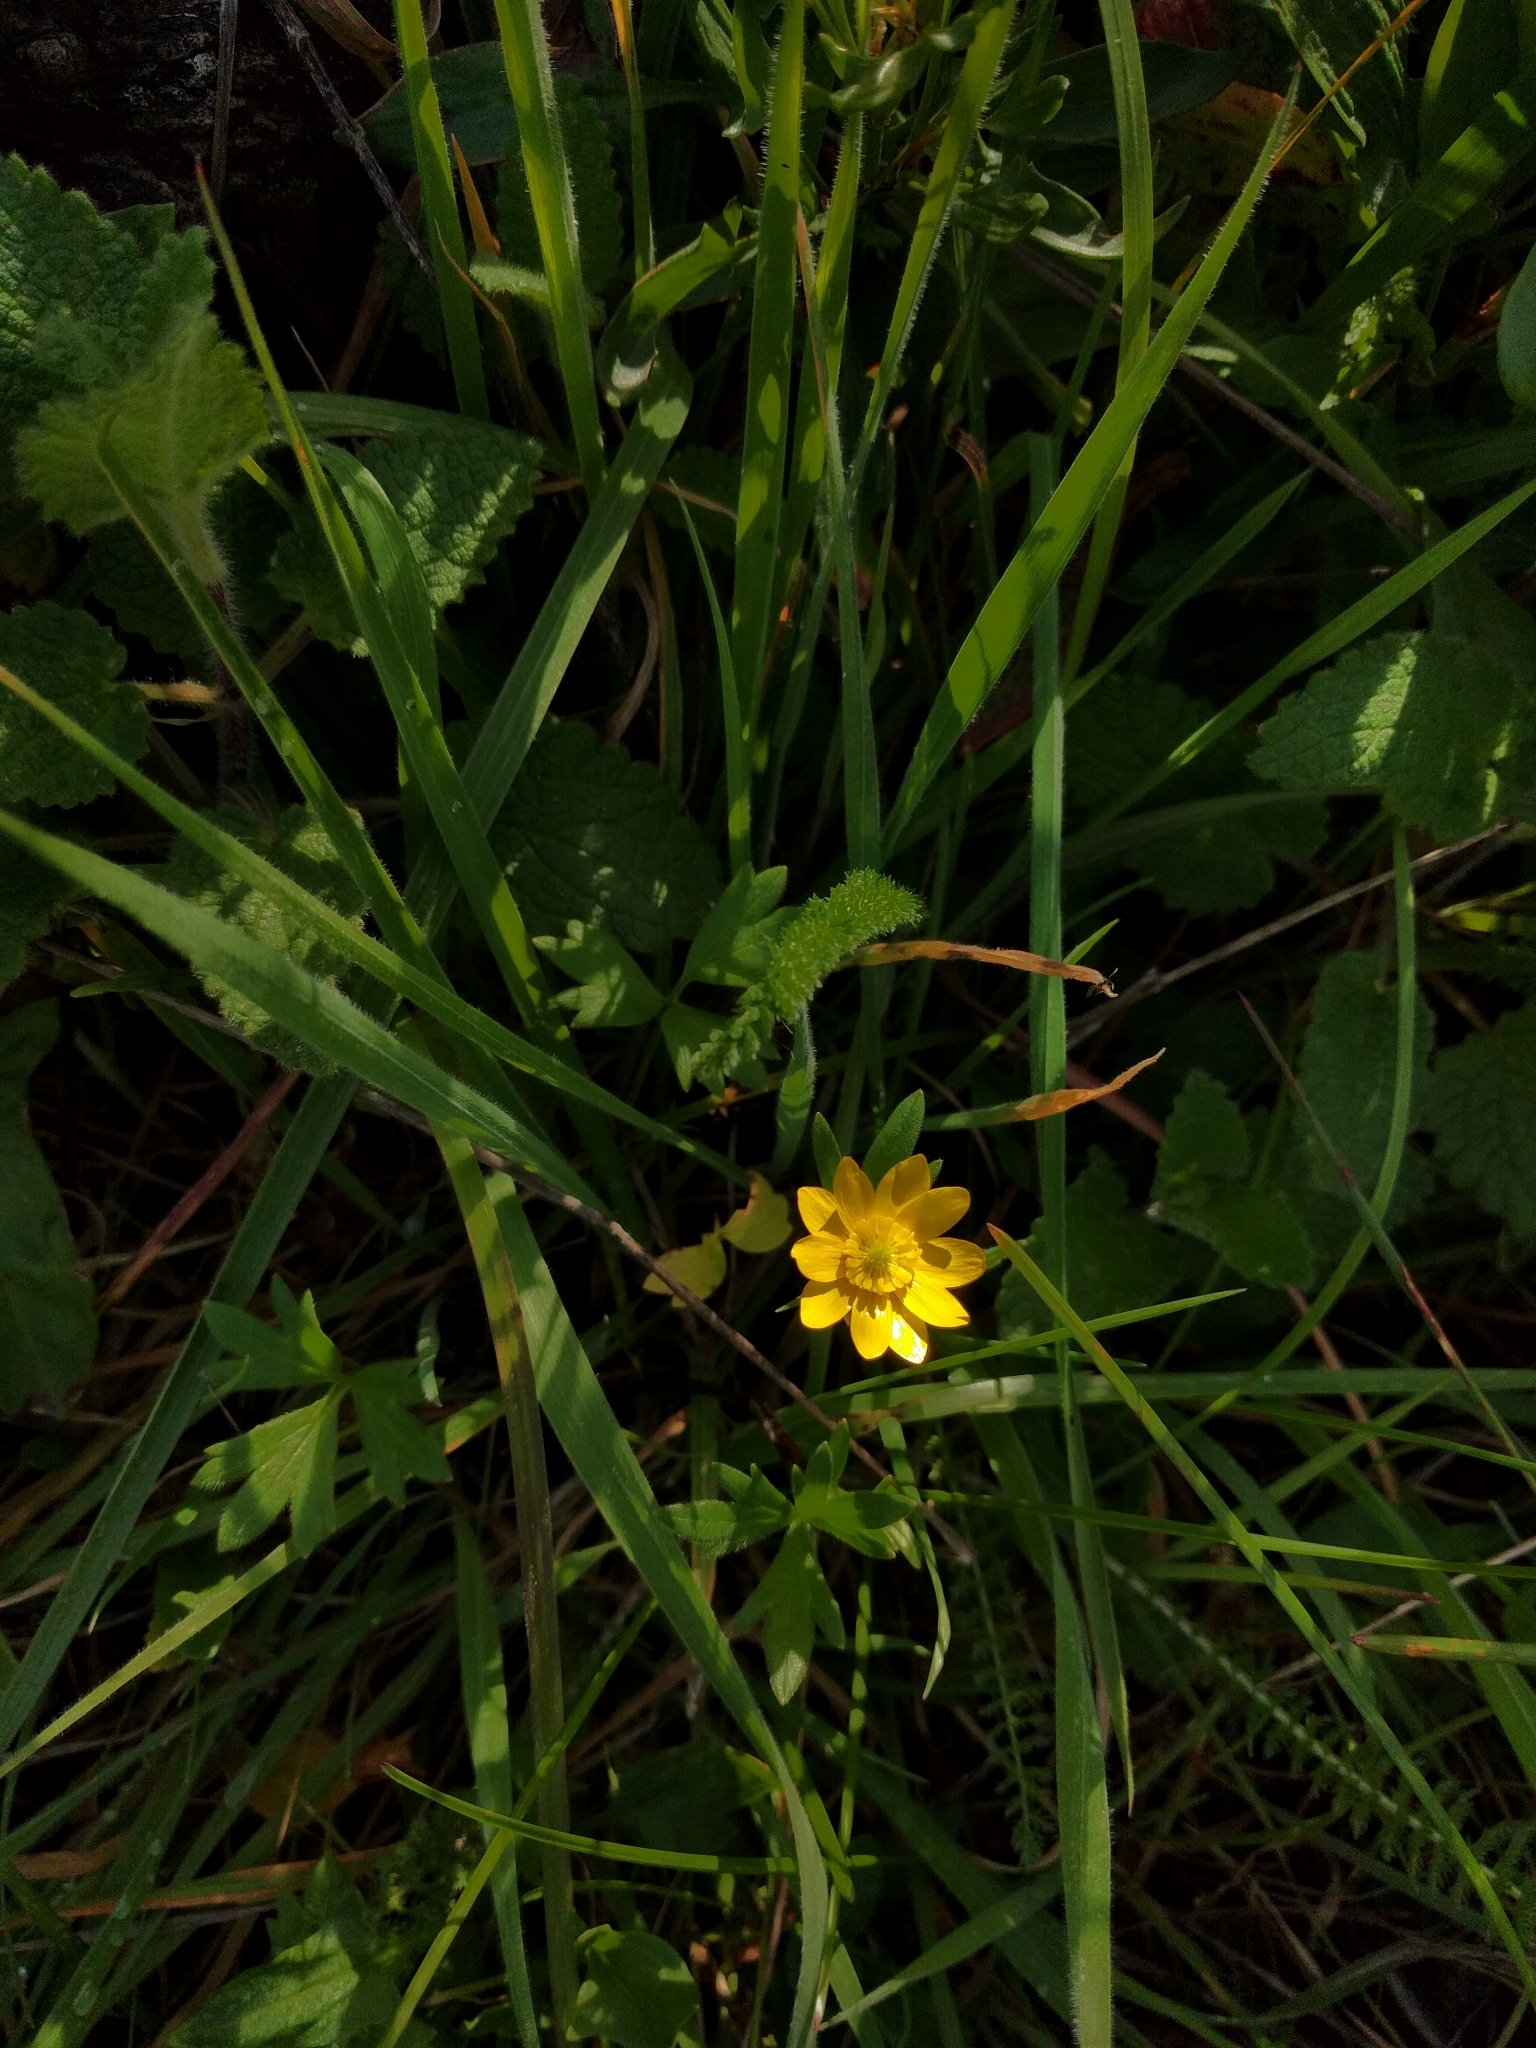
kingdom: Plantae
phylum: Tracheophyta
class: Magnoliopsida
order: Ranunculales
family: Ranunculaceae
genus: Ranunculus
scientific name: Ranunculus californicus
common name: California buttercup
